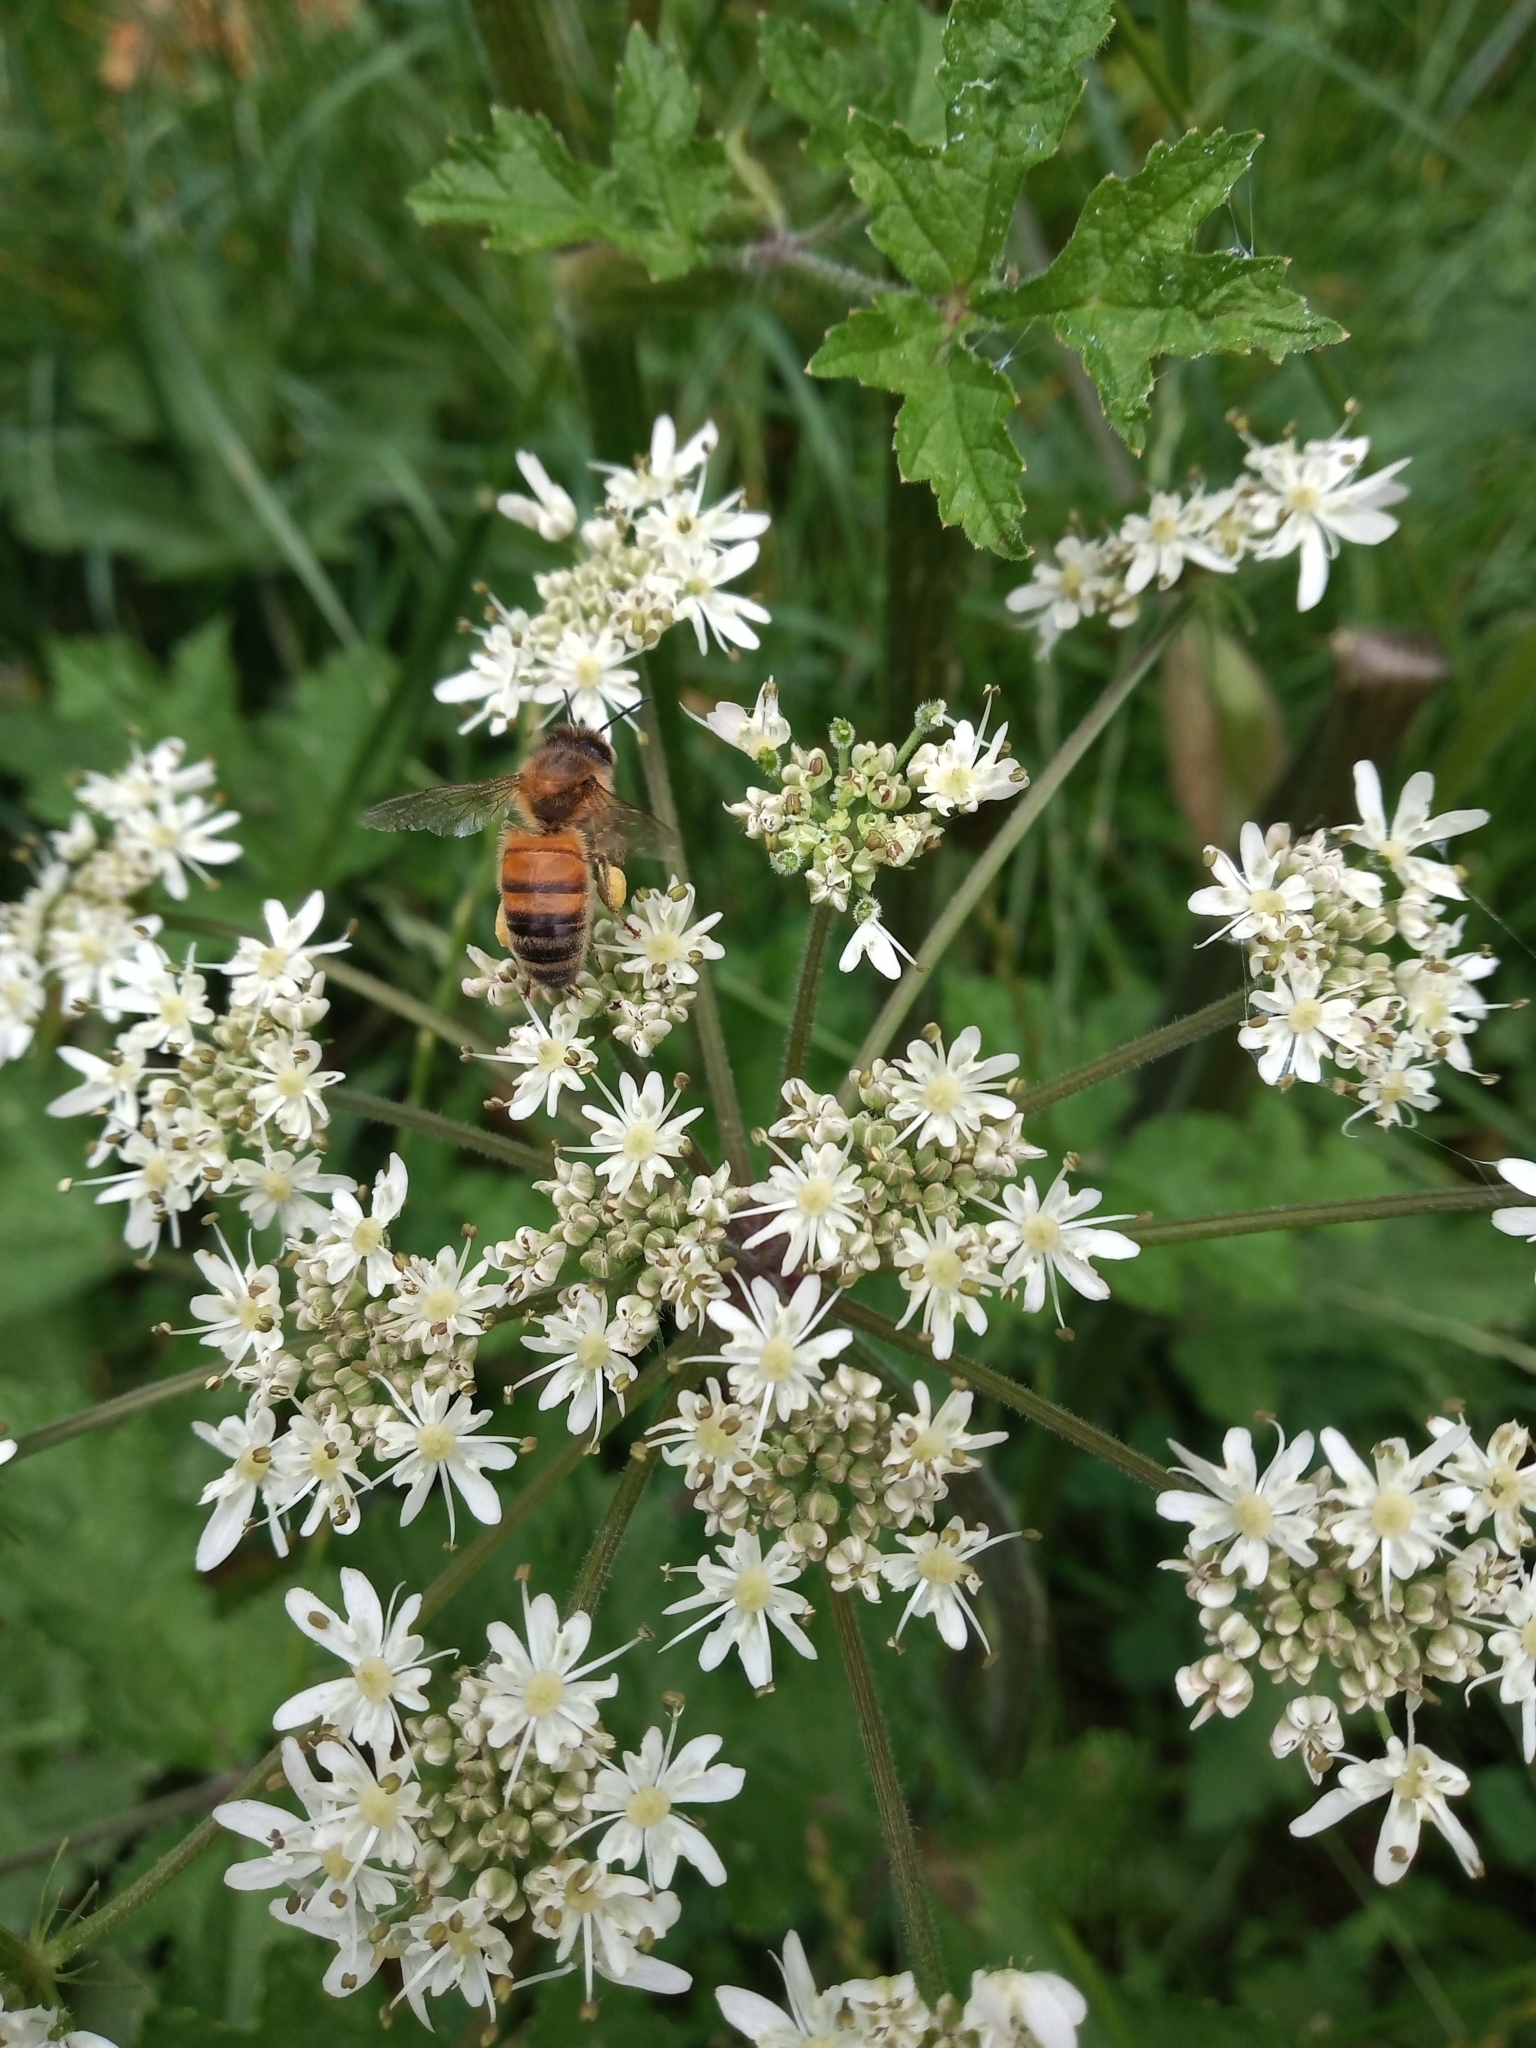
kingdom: Animalia
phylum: Arthropoda
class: Insecta
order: Hymenoptera
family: Apidae
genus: Apis
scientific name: Apis mellifera
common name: Honey bee
